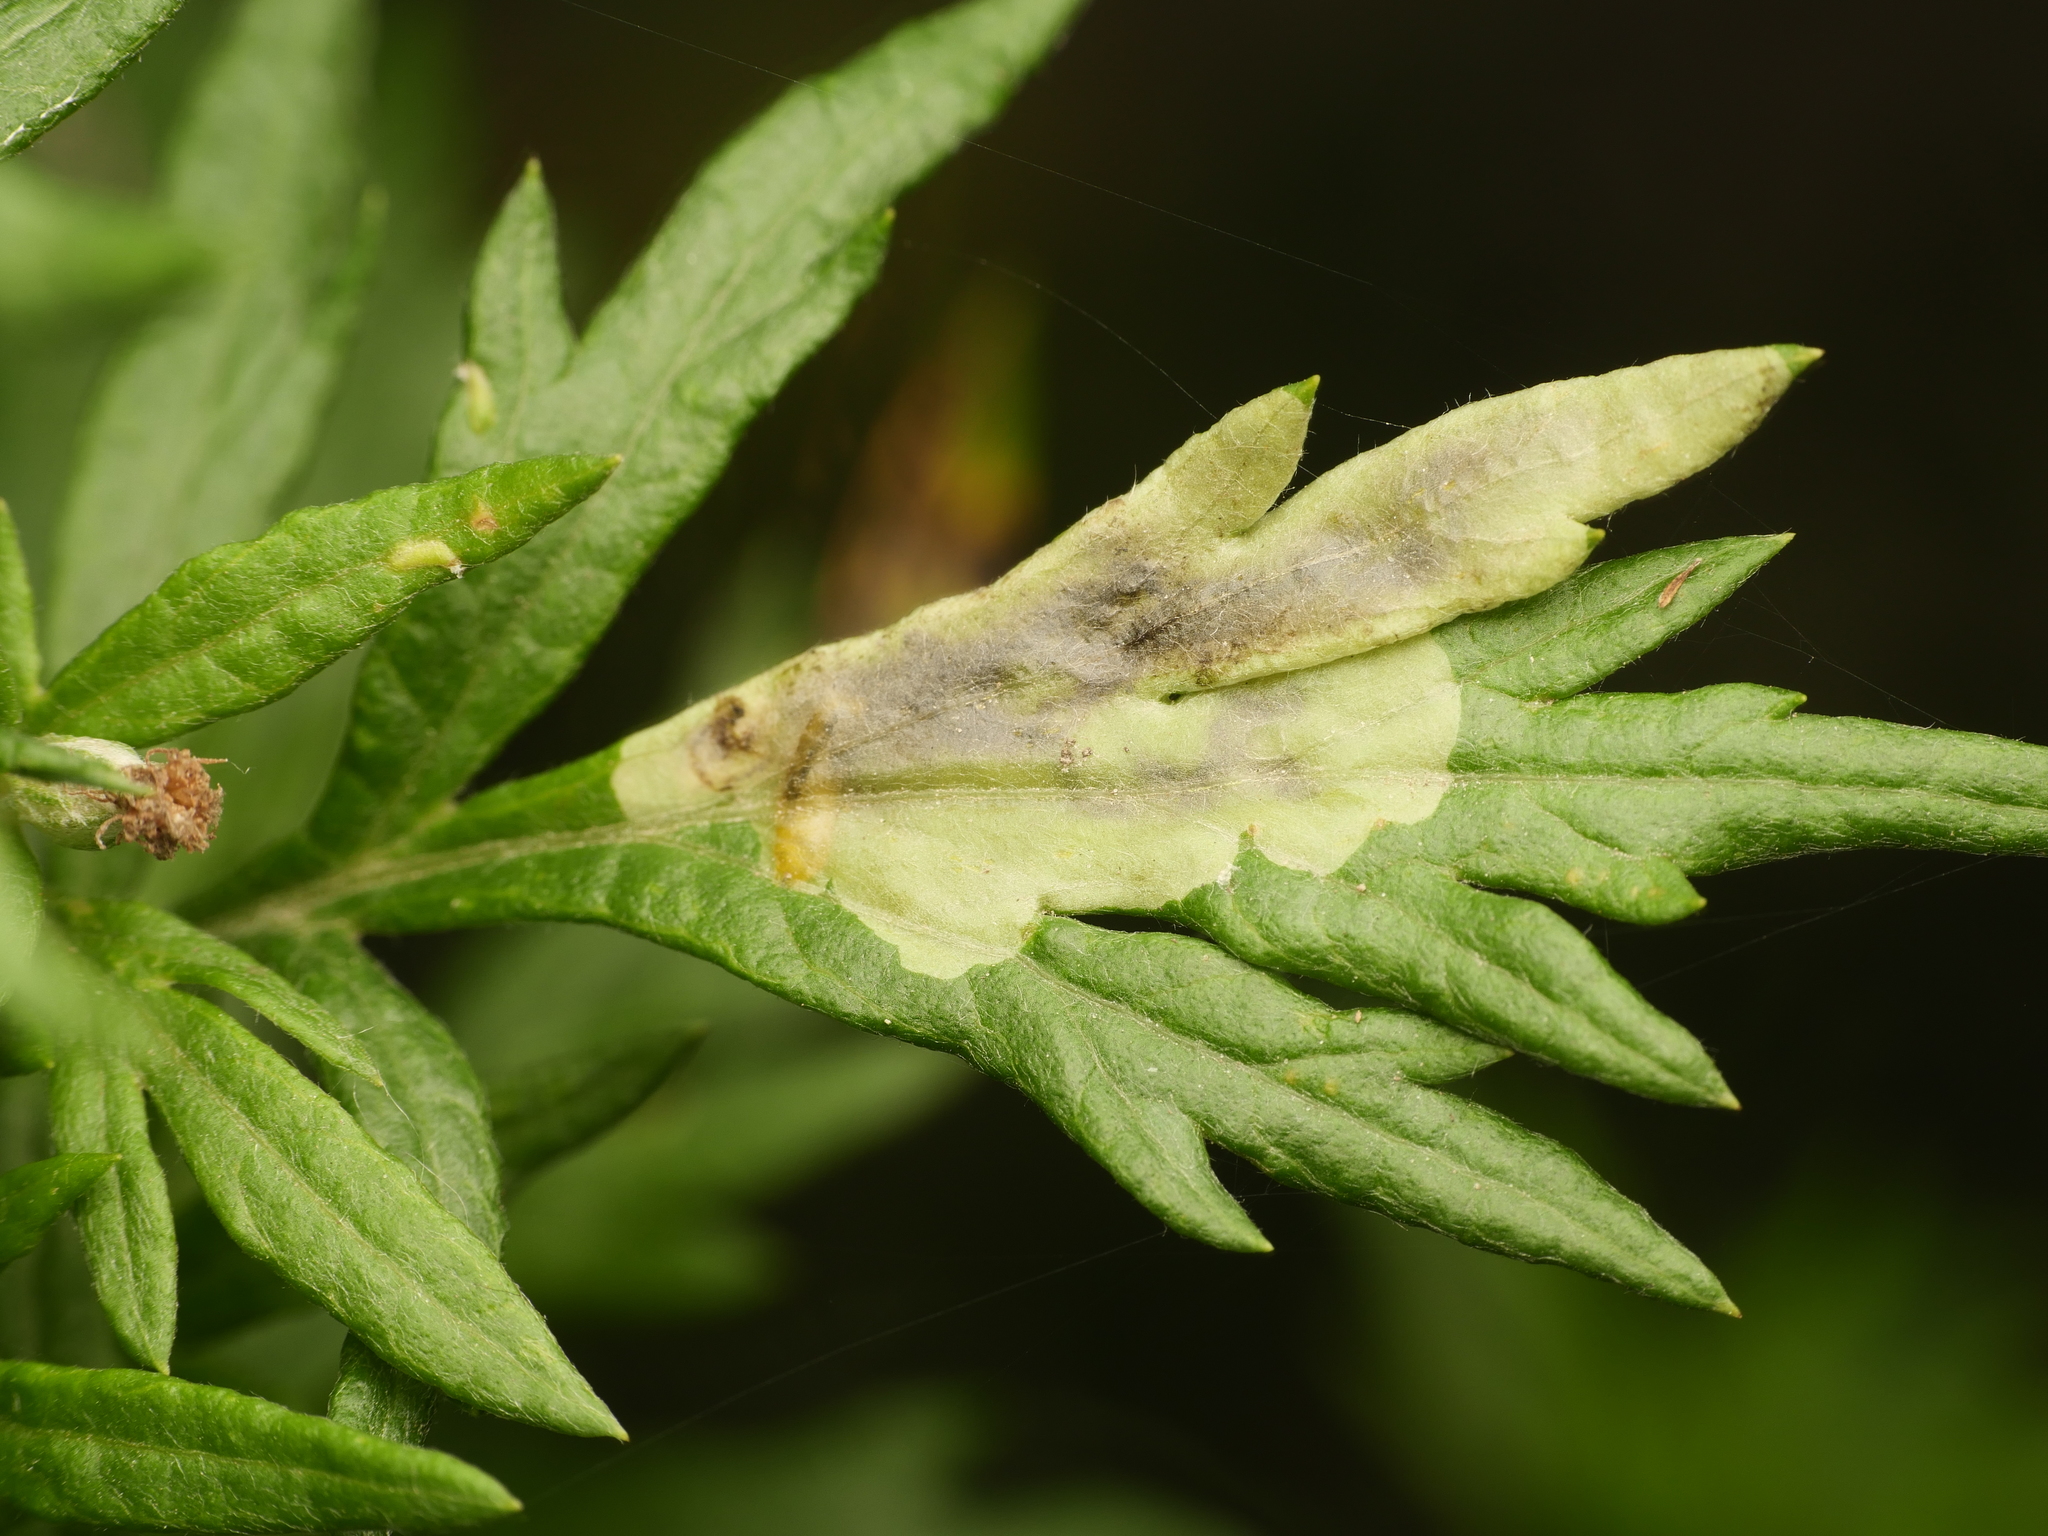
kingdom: Animalia
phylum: Arthropoda
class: Insecta
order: Diptera
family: Agromyzidae
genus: Calycomyza
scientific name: Calycomyza artemisiae
